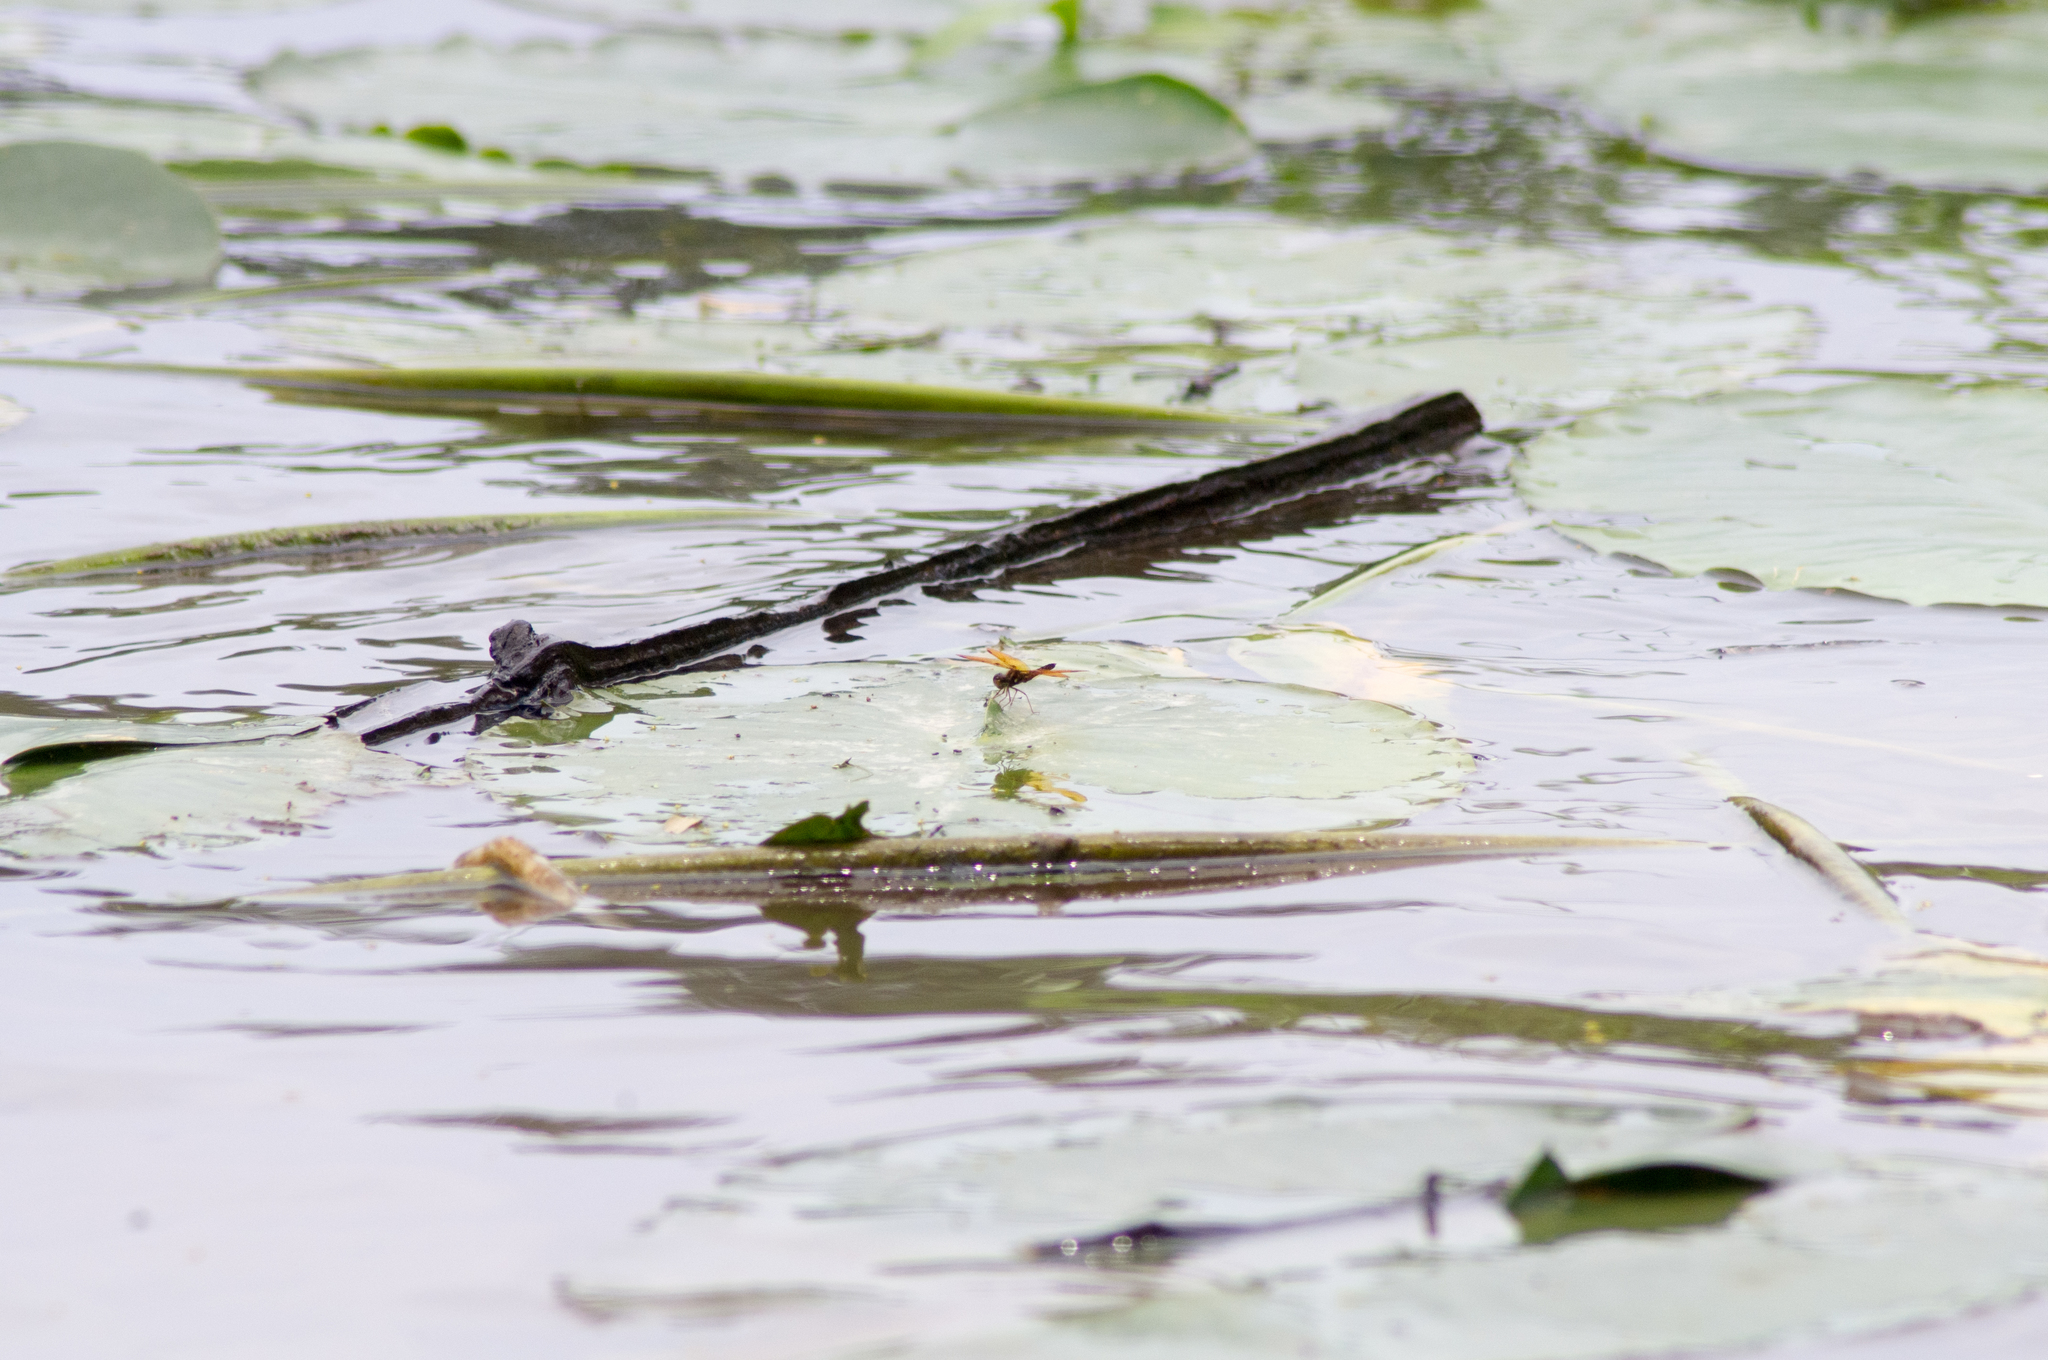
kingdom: Animalia
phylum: Arthropoda
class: Insecta
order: Odonata
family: Libellulidae
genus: Perithemis
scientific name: Perithemis tenera
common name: Eastern amberwing
